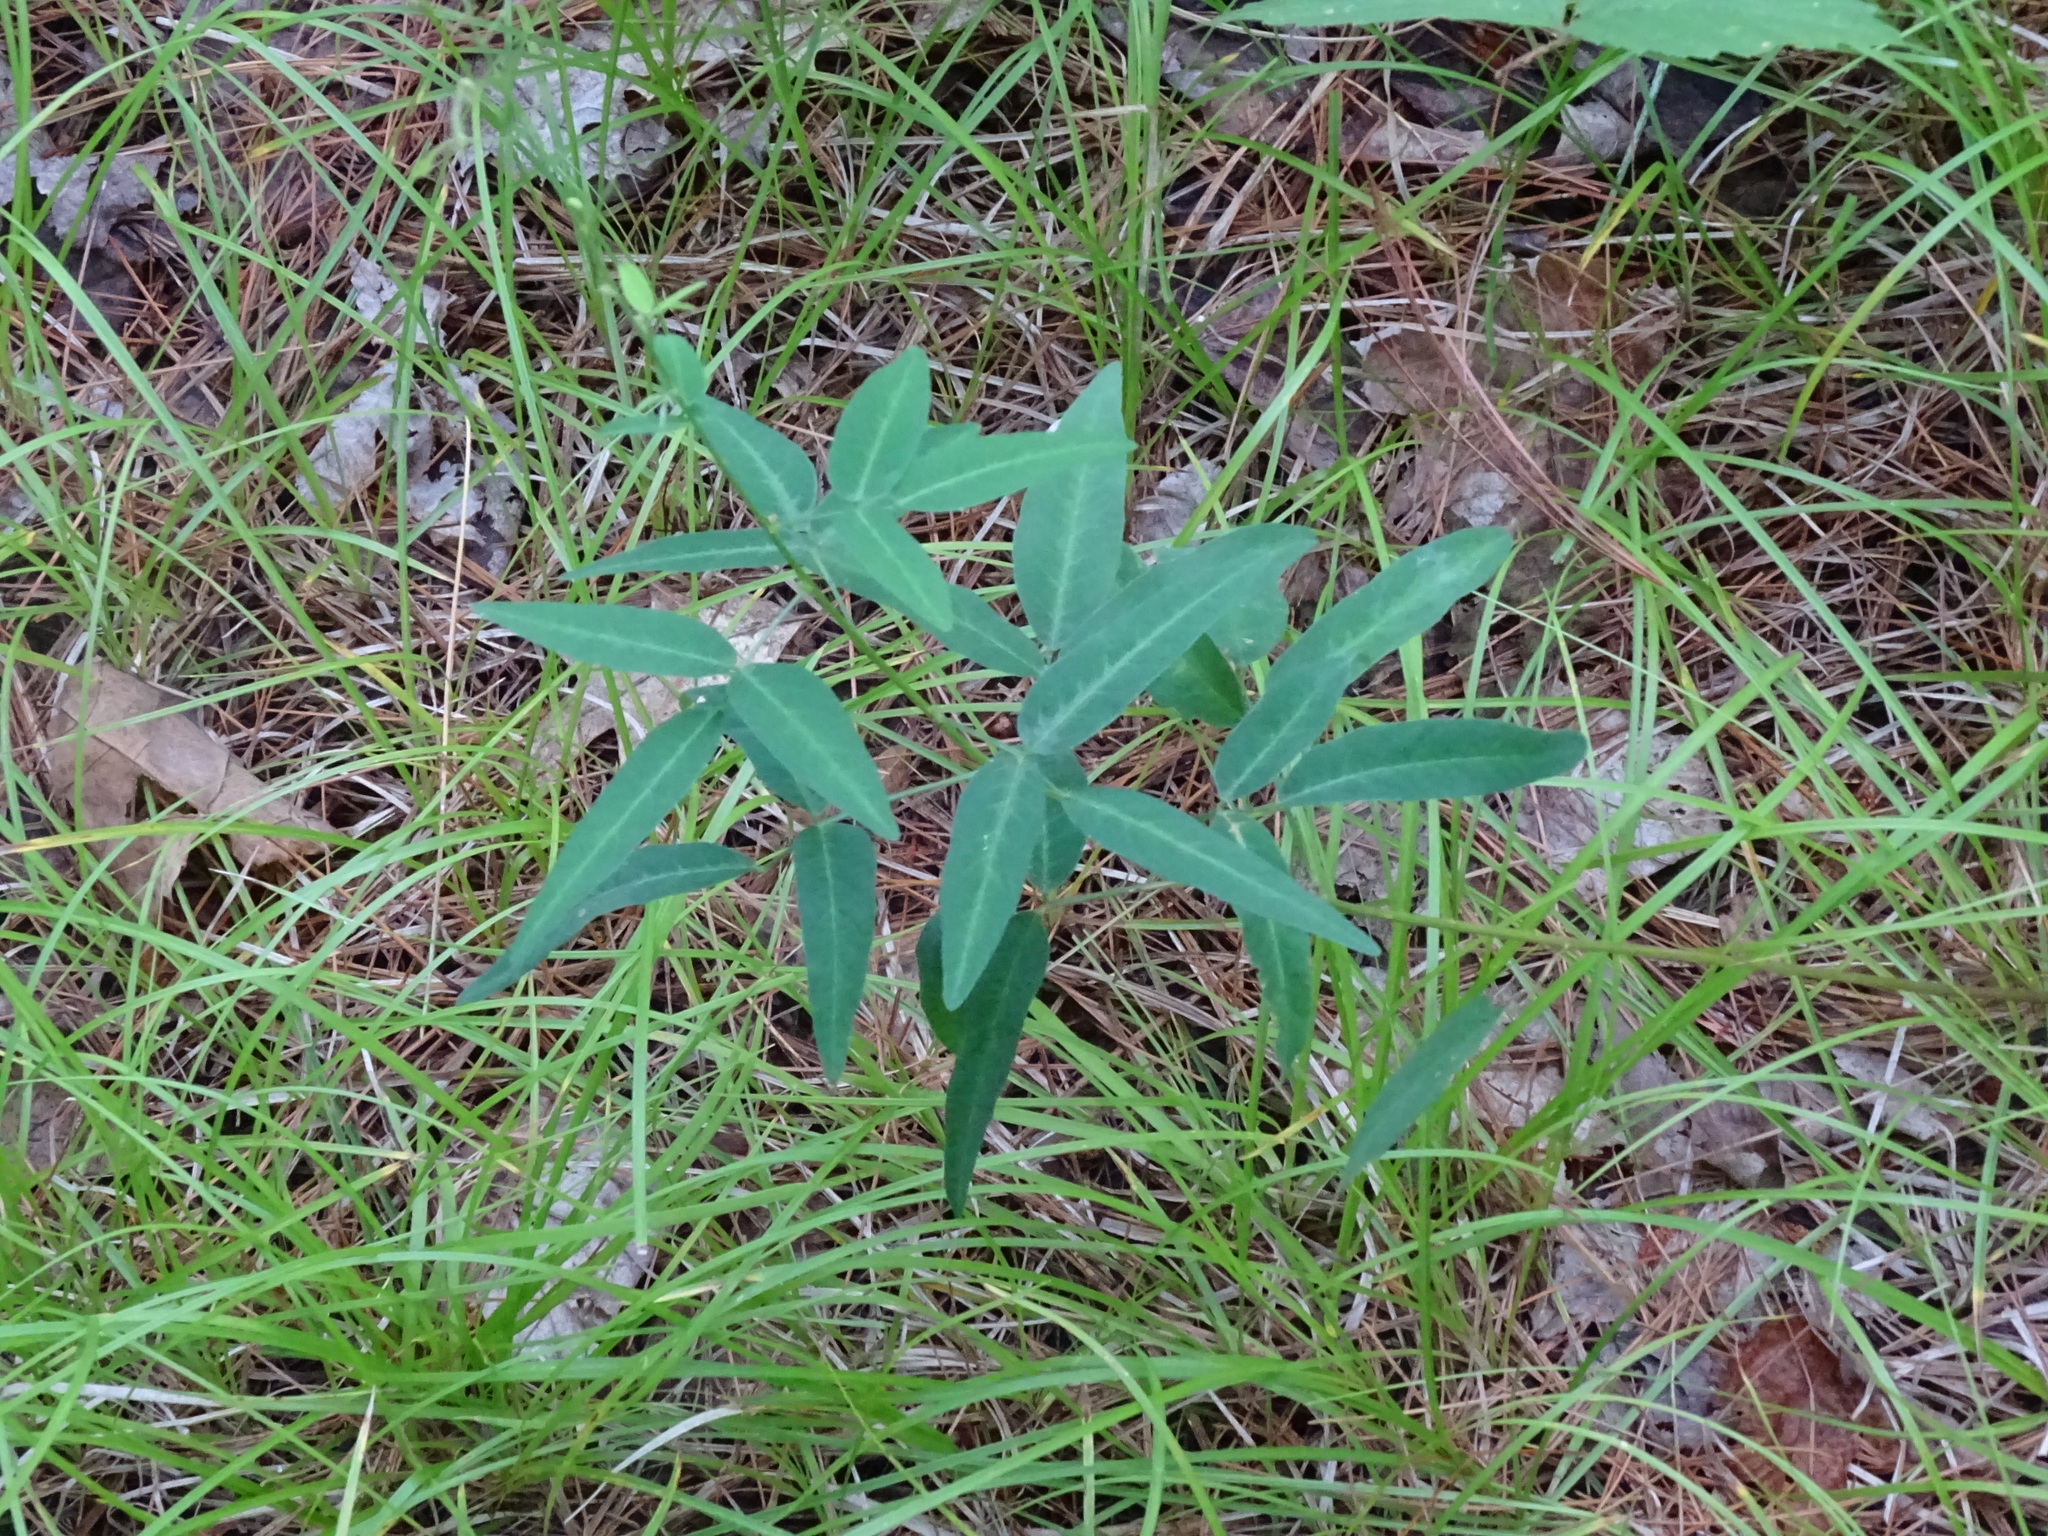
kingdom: Plantae
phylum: Tracheophyta
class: Magnoliopsida
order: Fabales
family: Fabaceae
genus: Desmodium
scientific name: Desmodium paniculatum
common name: Panicled tick-clover
